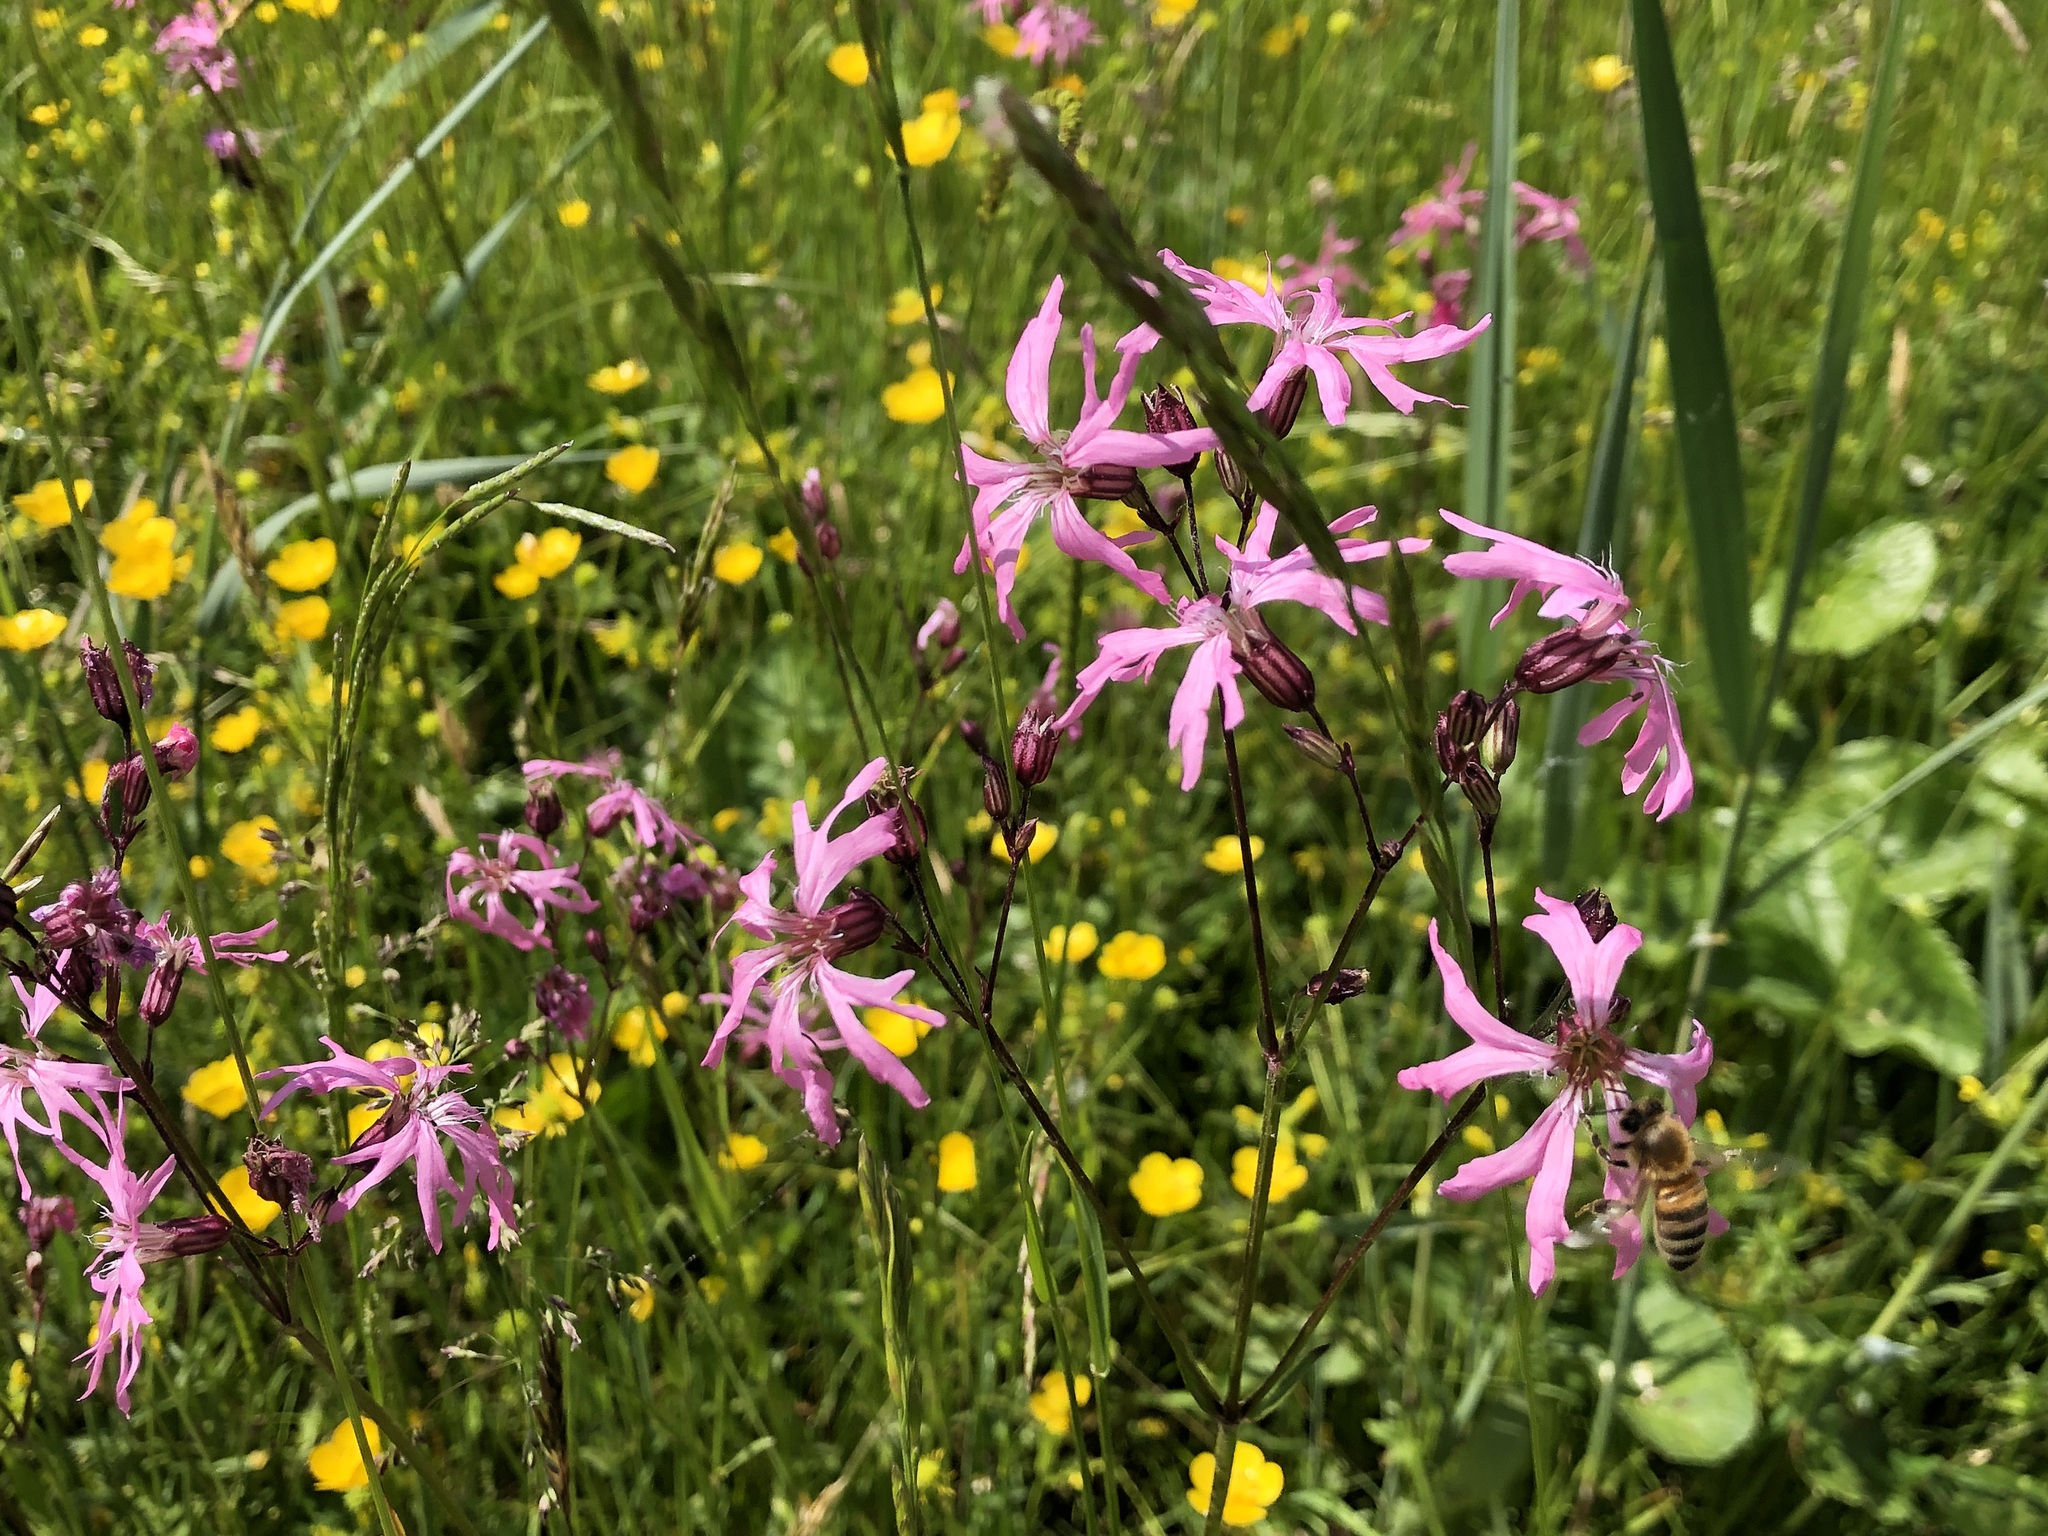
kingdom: Plantae
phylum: Tracheophyta
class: Magnoliopsida
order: Caryophyllales
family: Caryophyllaceae
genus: Silene
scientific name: Silene flos-cuculi
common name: Ragged-robin
